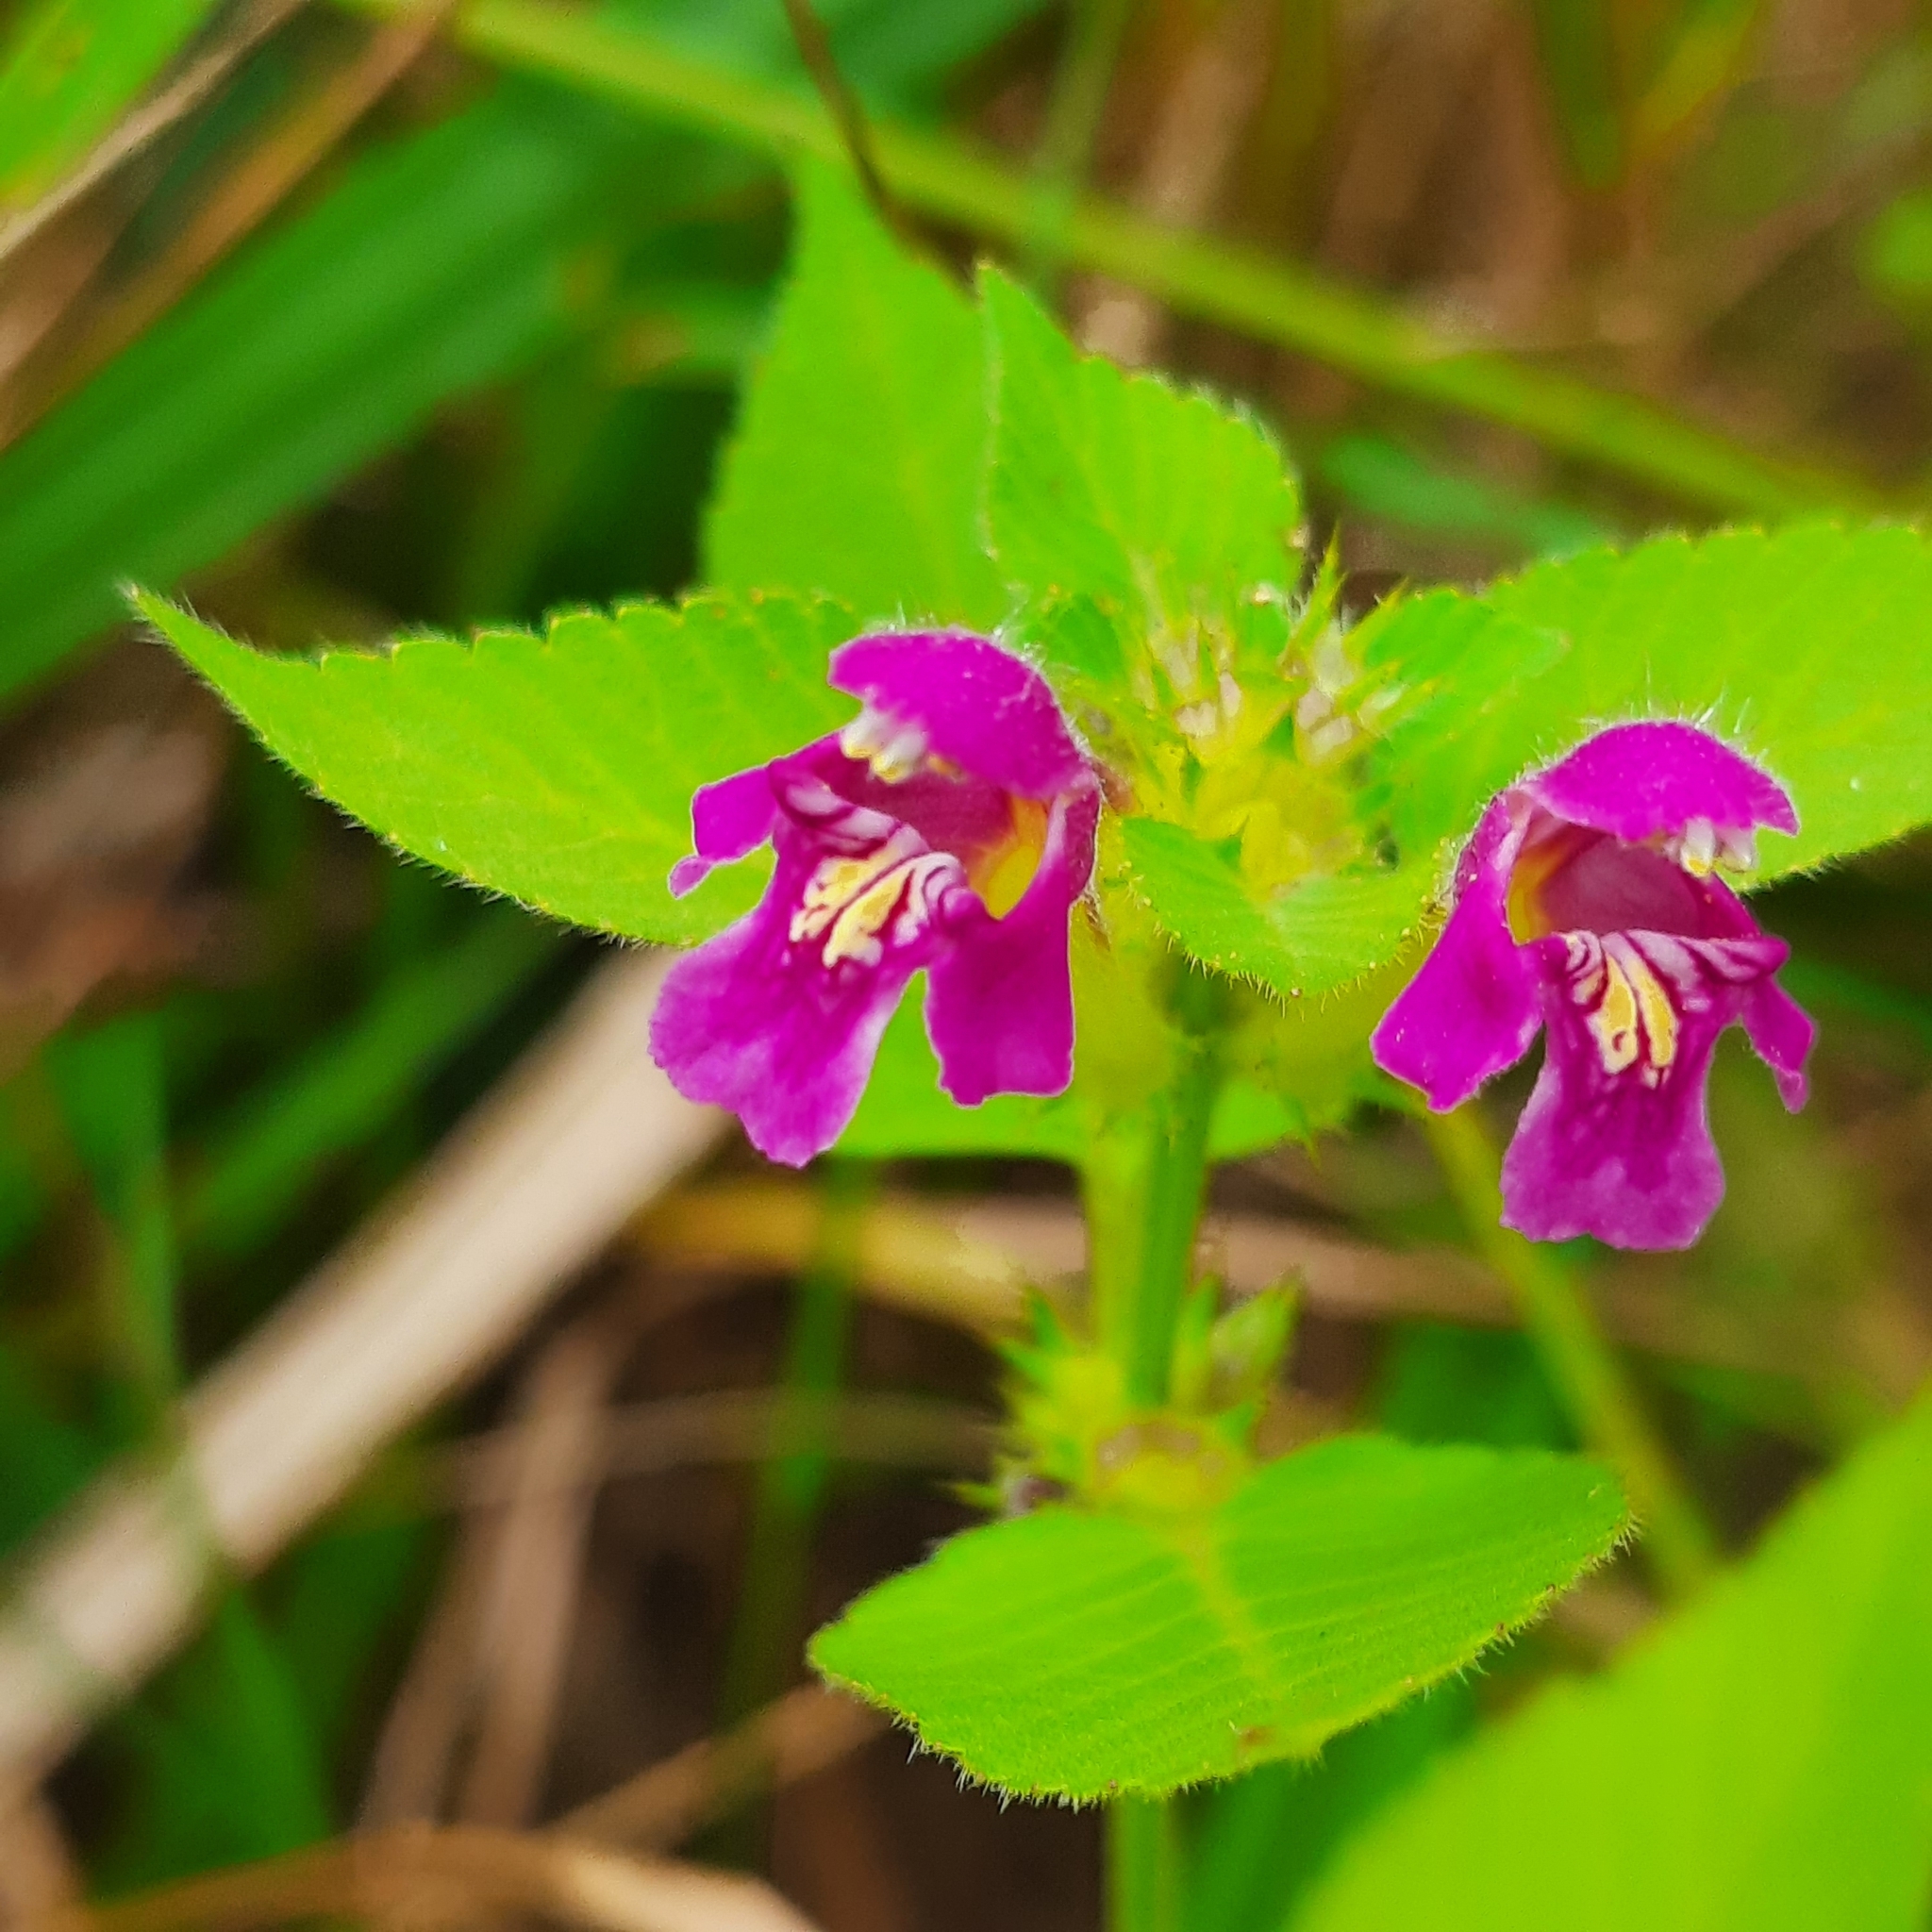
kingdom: Plantae
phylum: Tracheophyta
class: Magnoliopsida
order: Lamiales
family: Lamiaceae
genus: Galeopsis
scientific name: Galeopsis pubescens
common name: Downy hemp-nettle
